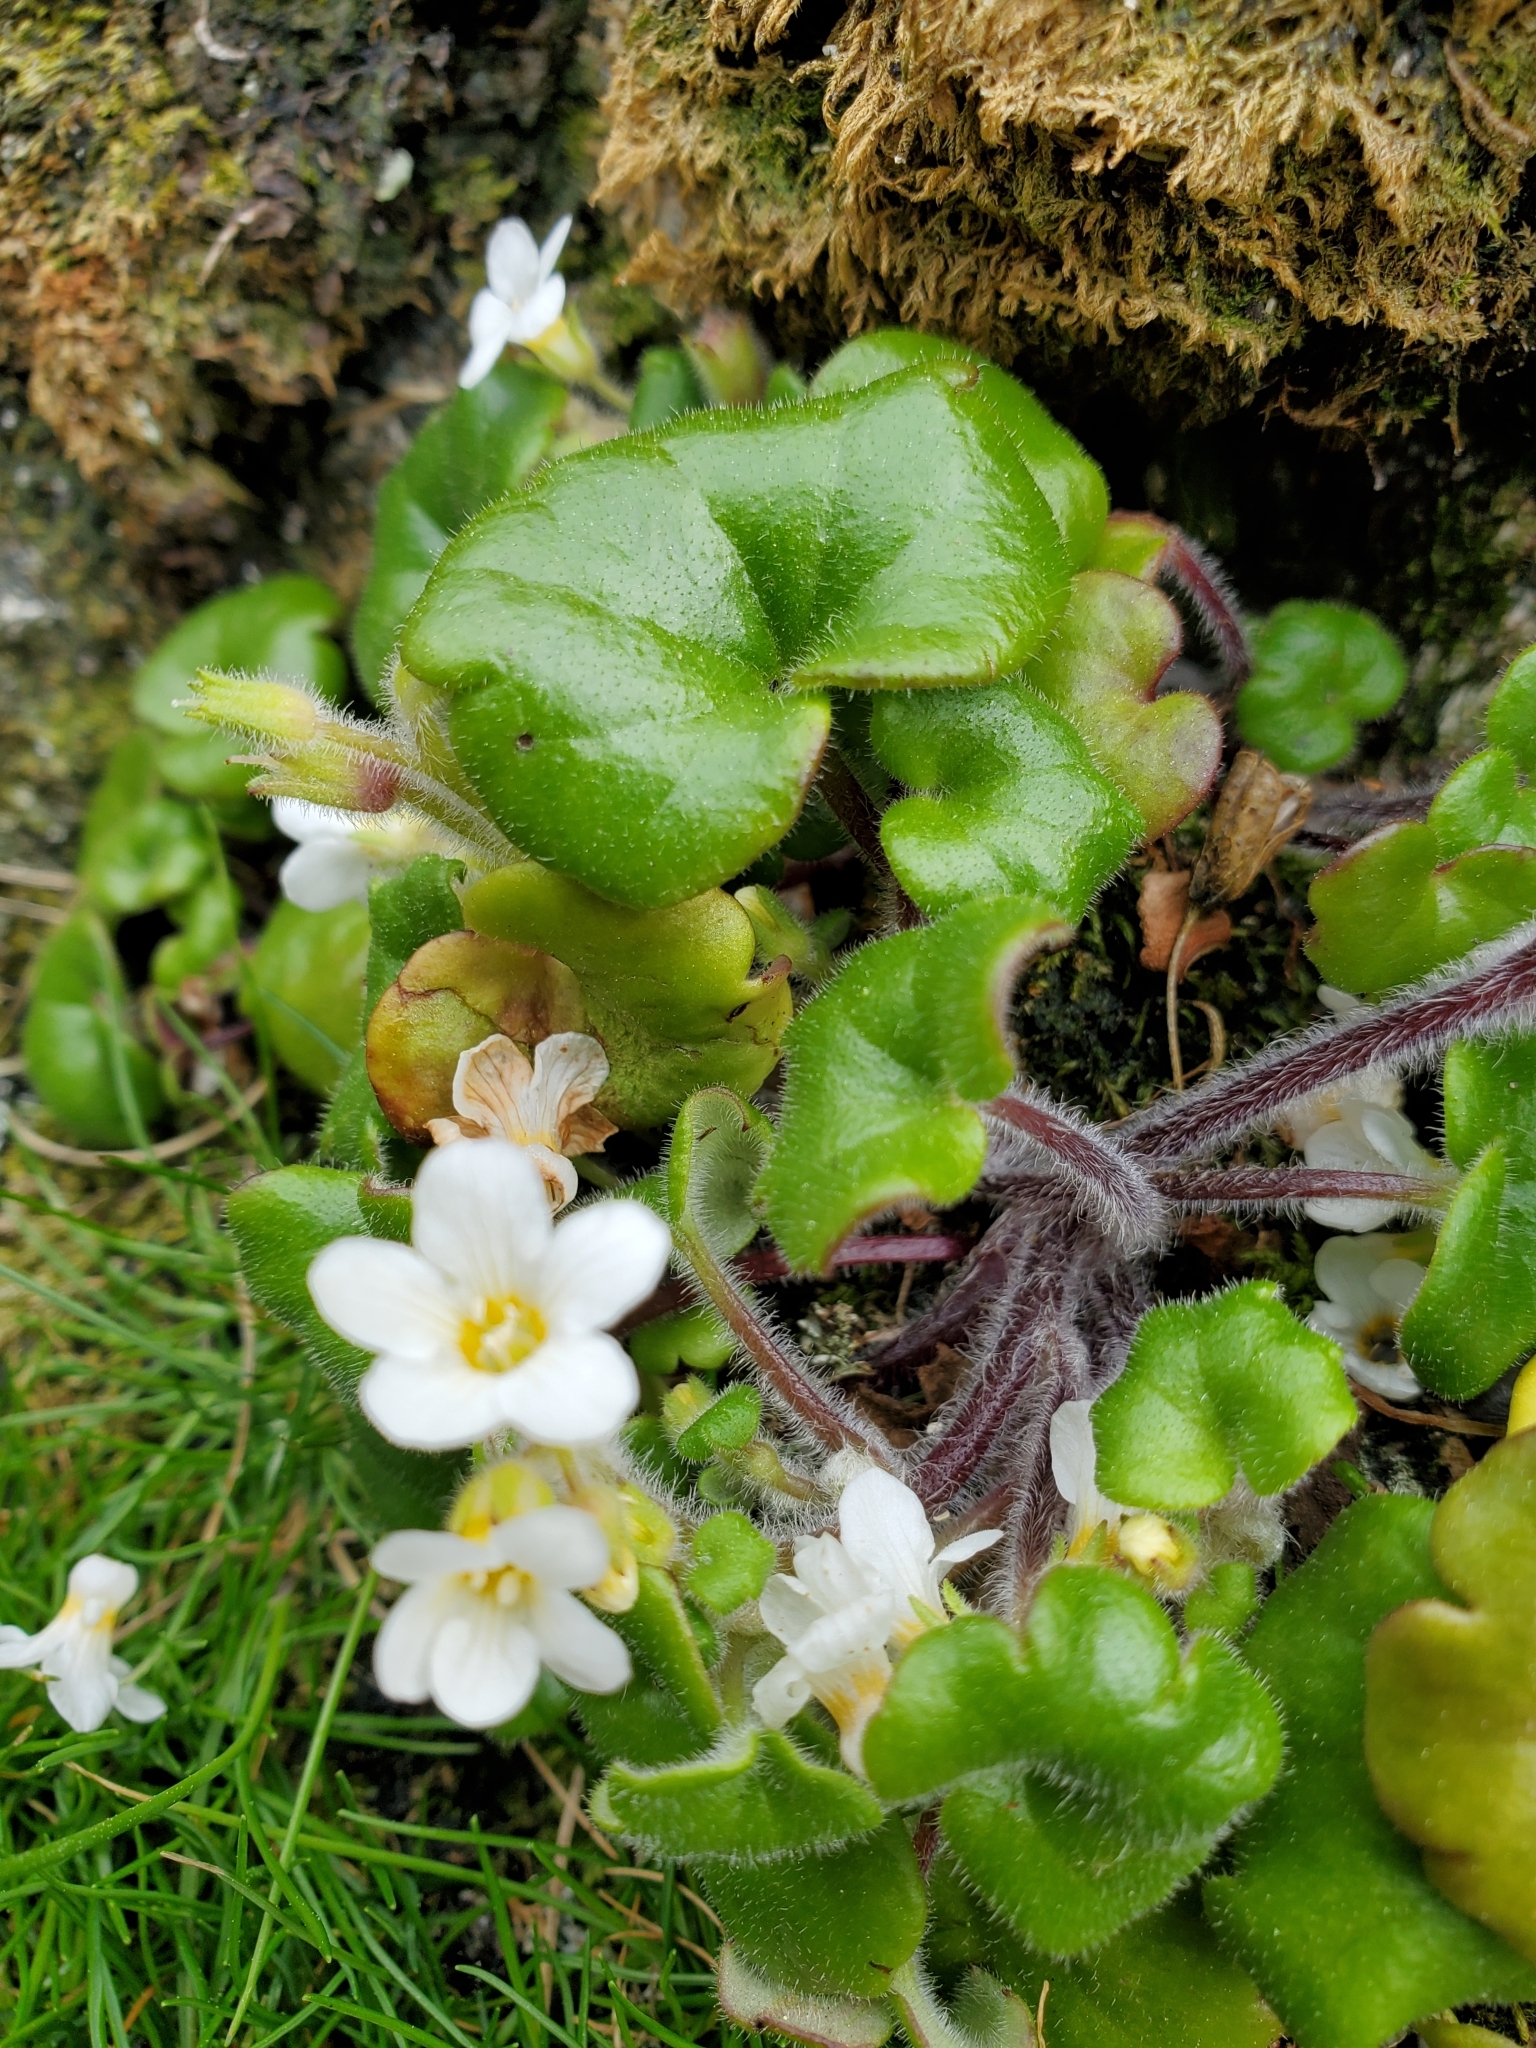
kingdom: Plantae
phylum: Tracheophyta
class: Magnoliopsida
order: Boraginales
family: Hydrophyllaceae
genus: Romanzoffia
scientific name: Romanzoffia tracyi
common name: Tracy's mistmaid
